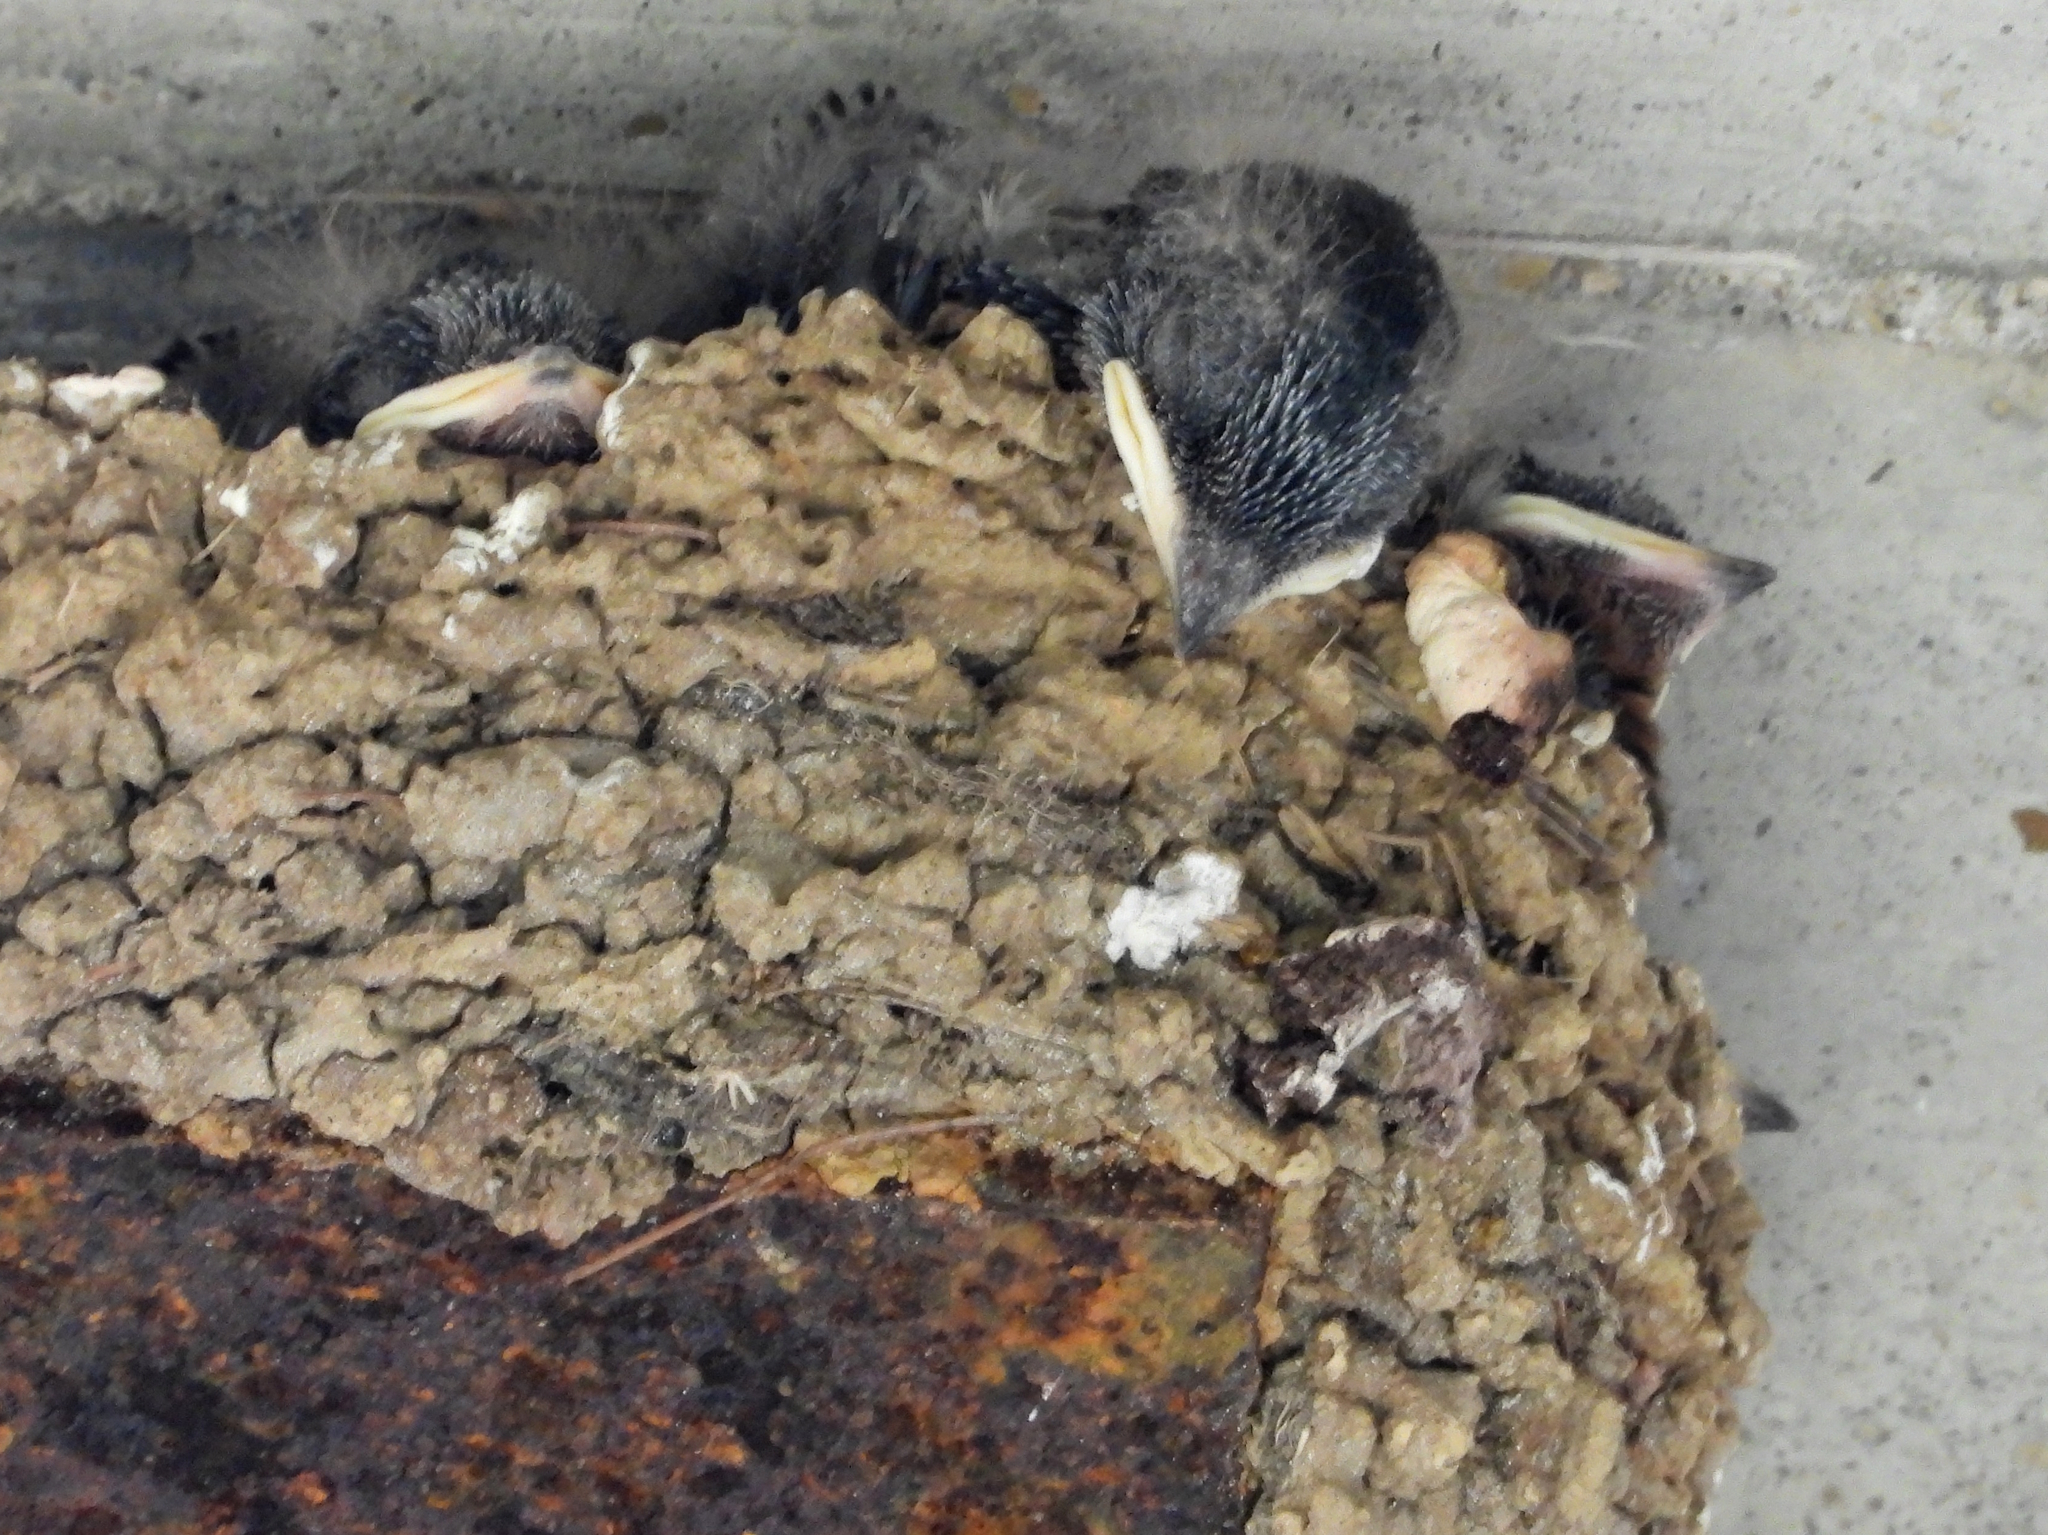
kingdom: Animalia
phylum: Chordata
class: Aves
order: Passeriformes
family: Hirundinidae
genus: Hirundo
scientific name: Hirundo rustica
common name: Barn swallow
